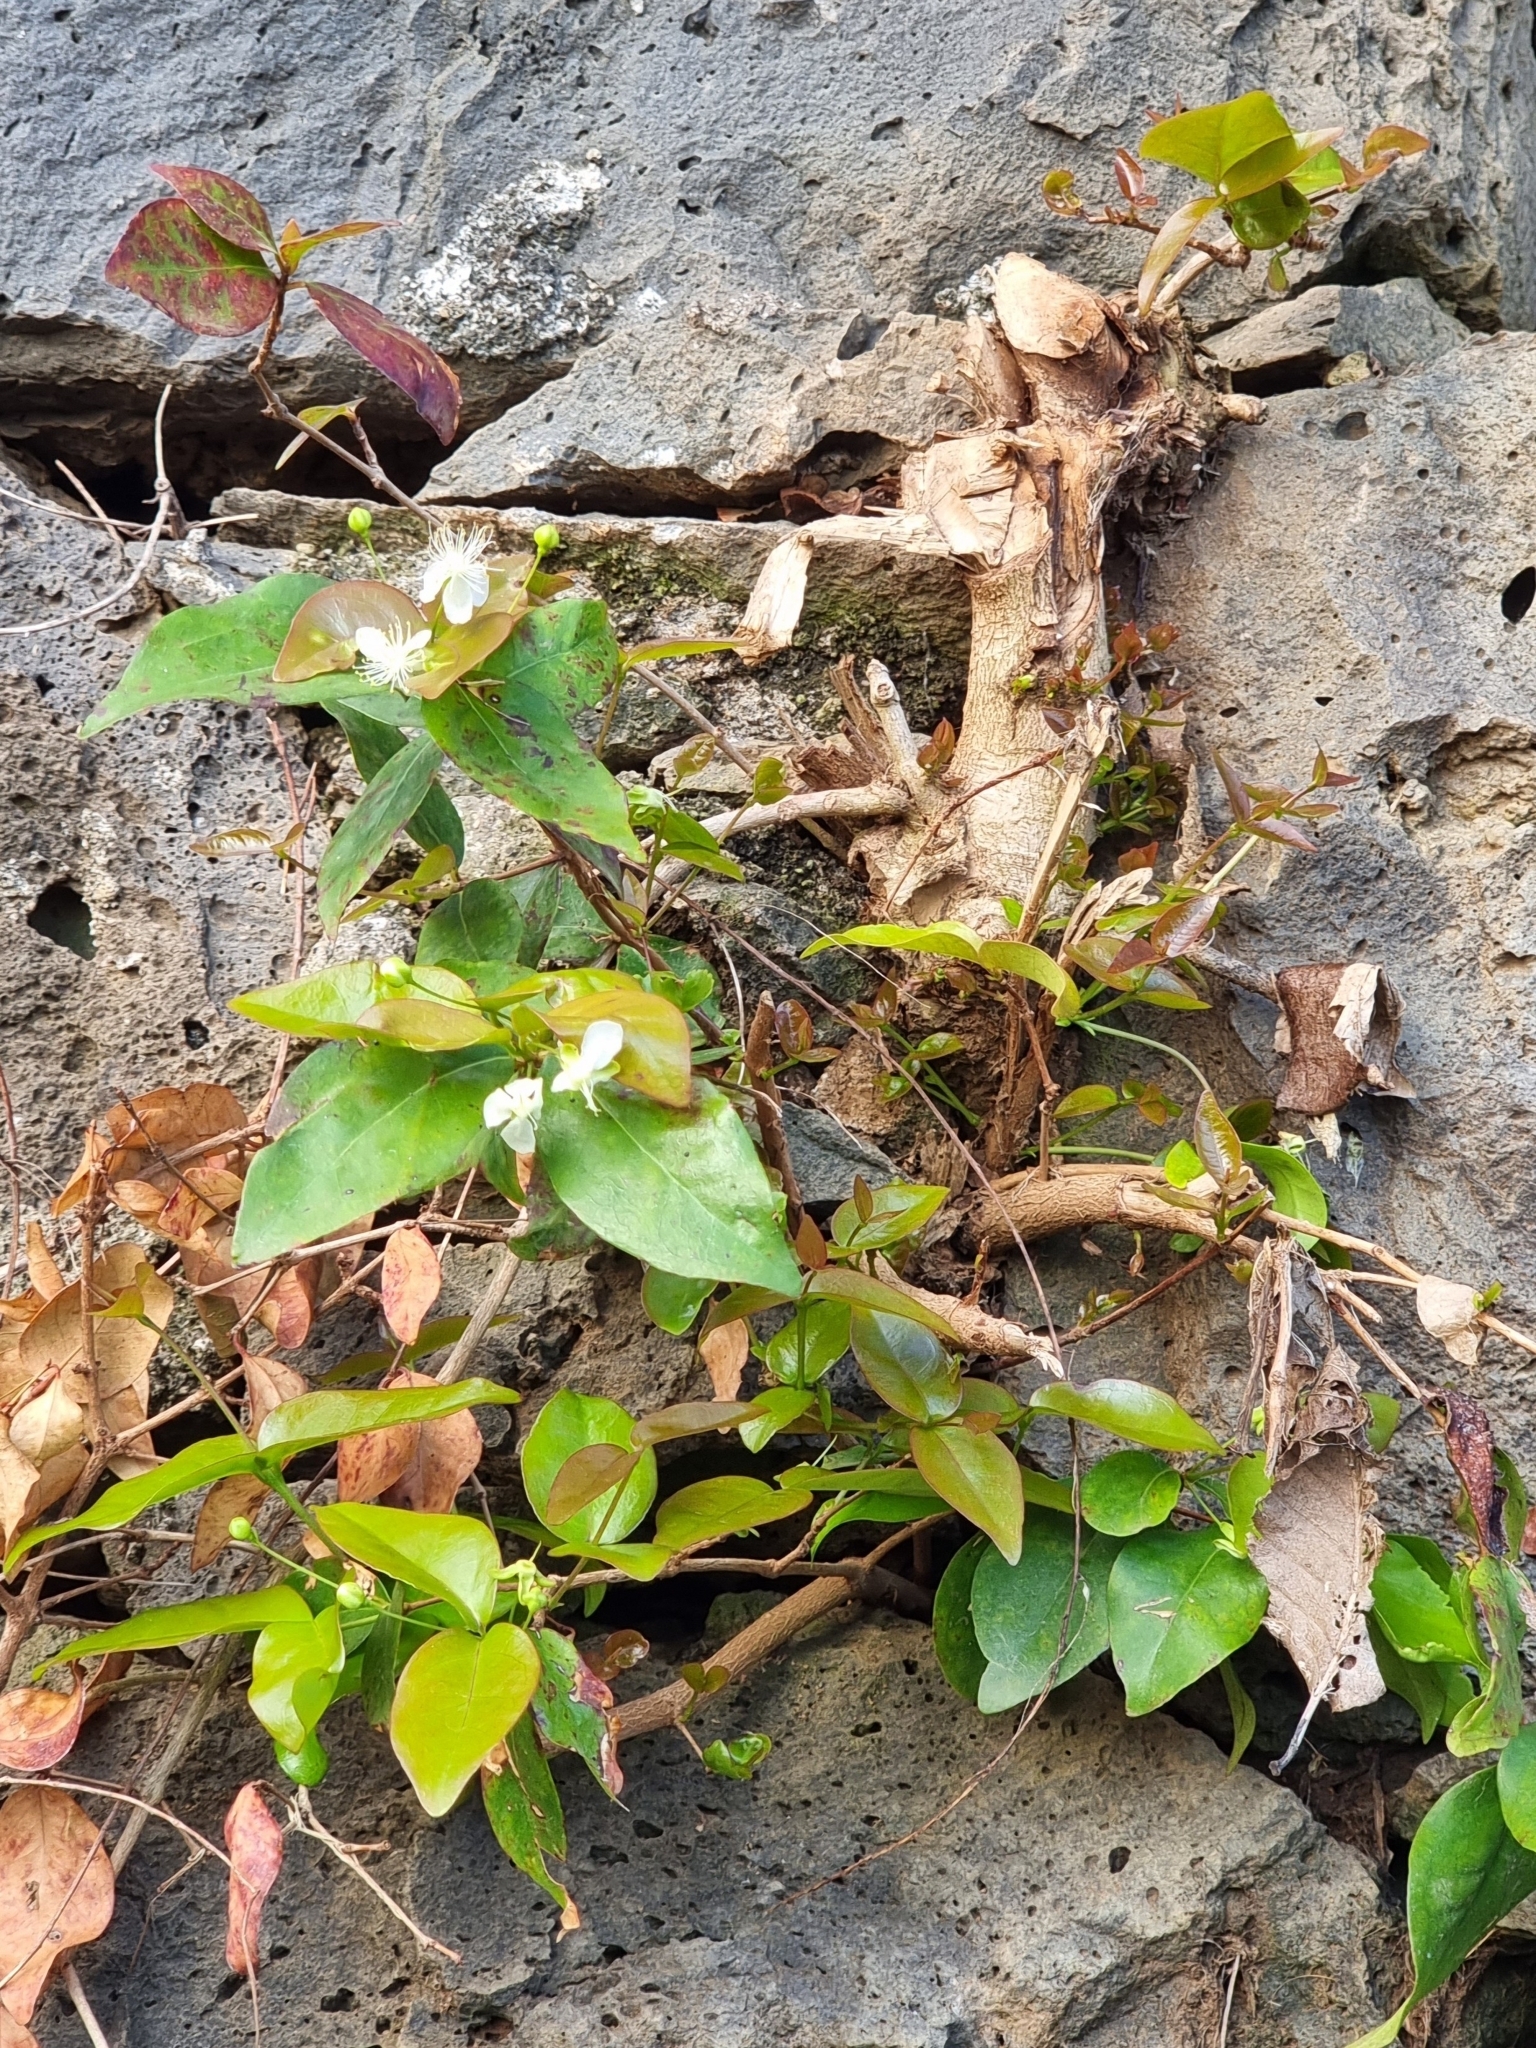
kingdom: Plantae
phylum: Tracheophyta
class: Magnoliopsida
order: Myrtales
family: Myrtaceae
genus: Eugenia
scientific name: Eugenia uniflora
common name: Surinam cherry
